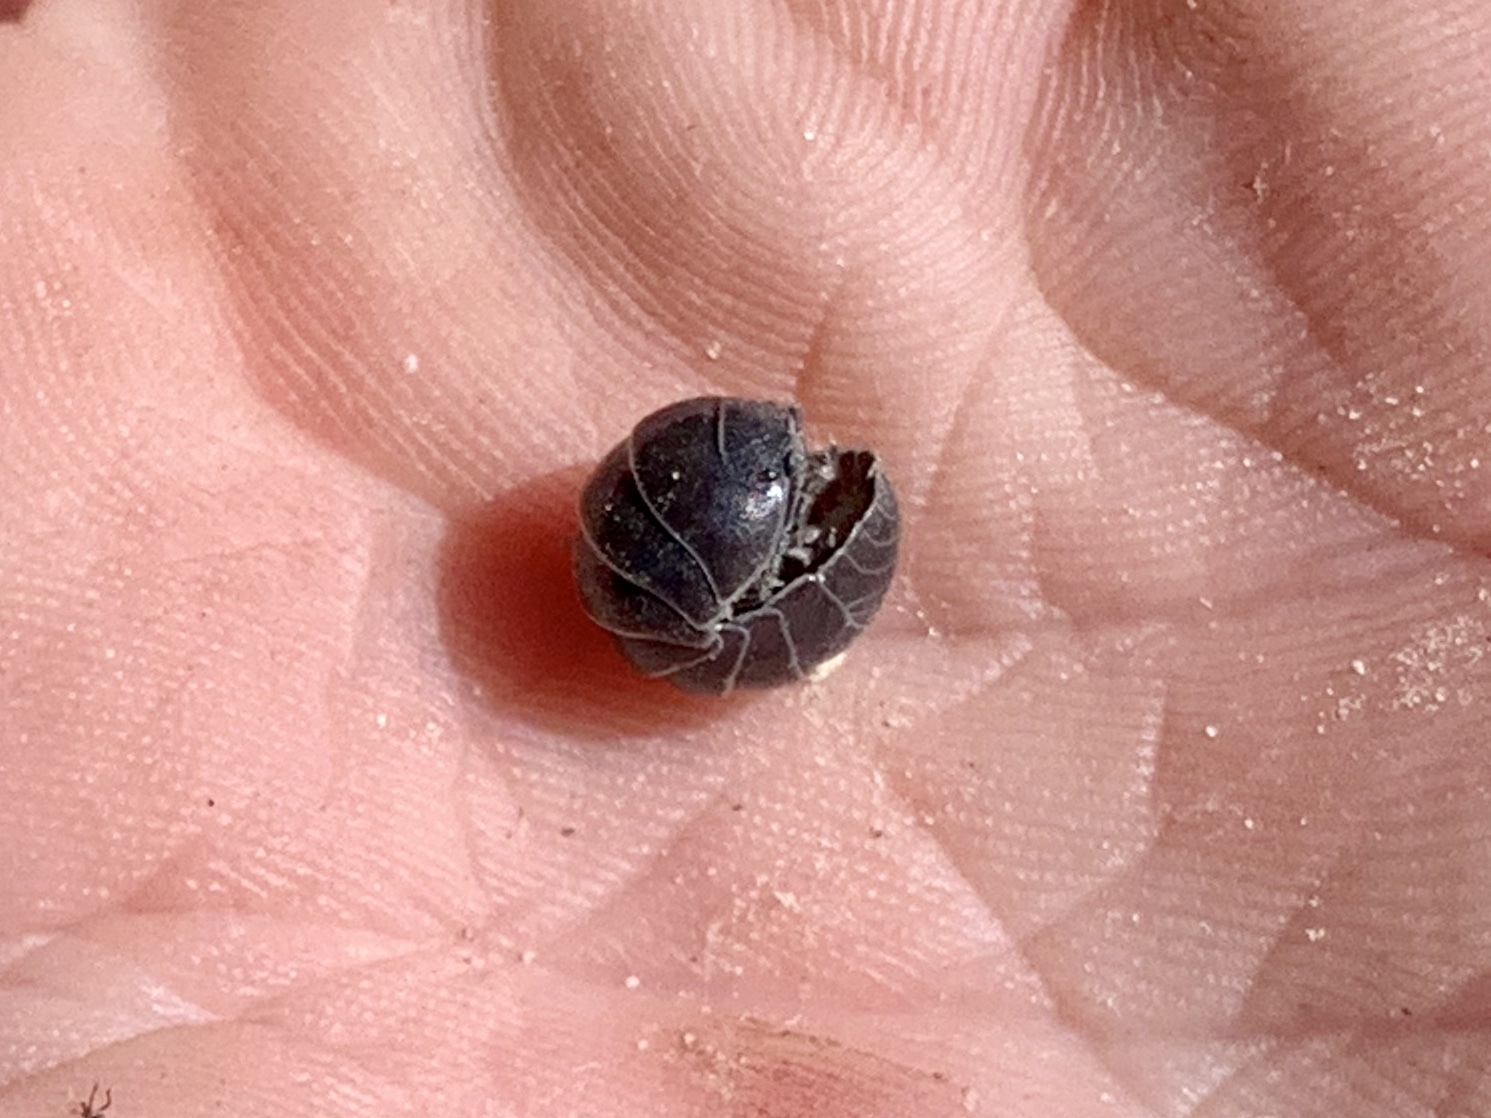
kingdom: Animalia
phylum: Arthropoda
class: Malacostraca
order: Isopoda
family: Armadillidiidae
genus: Armadillidium
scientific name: Armadillidium vulgare
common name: Common pill woodlouse
